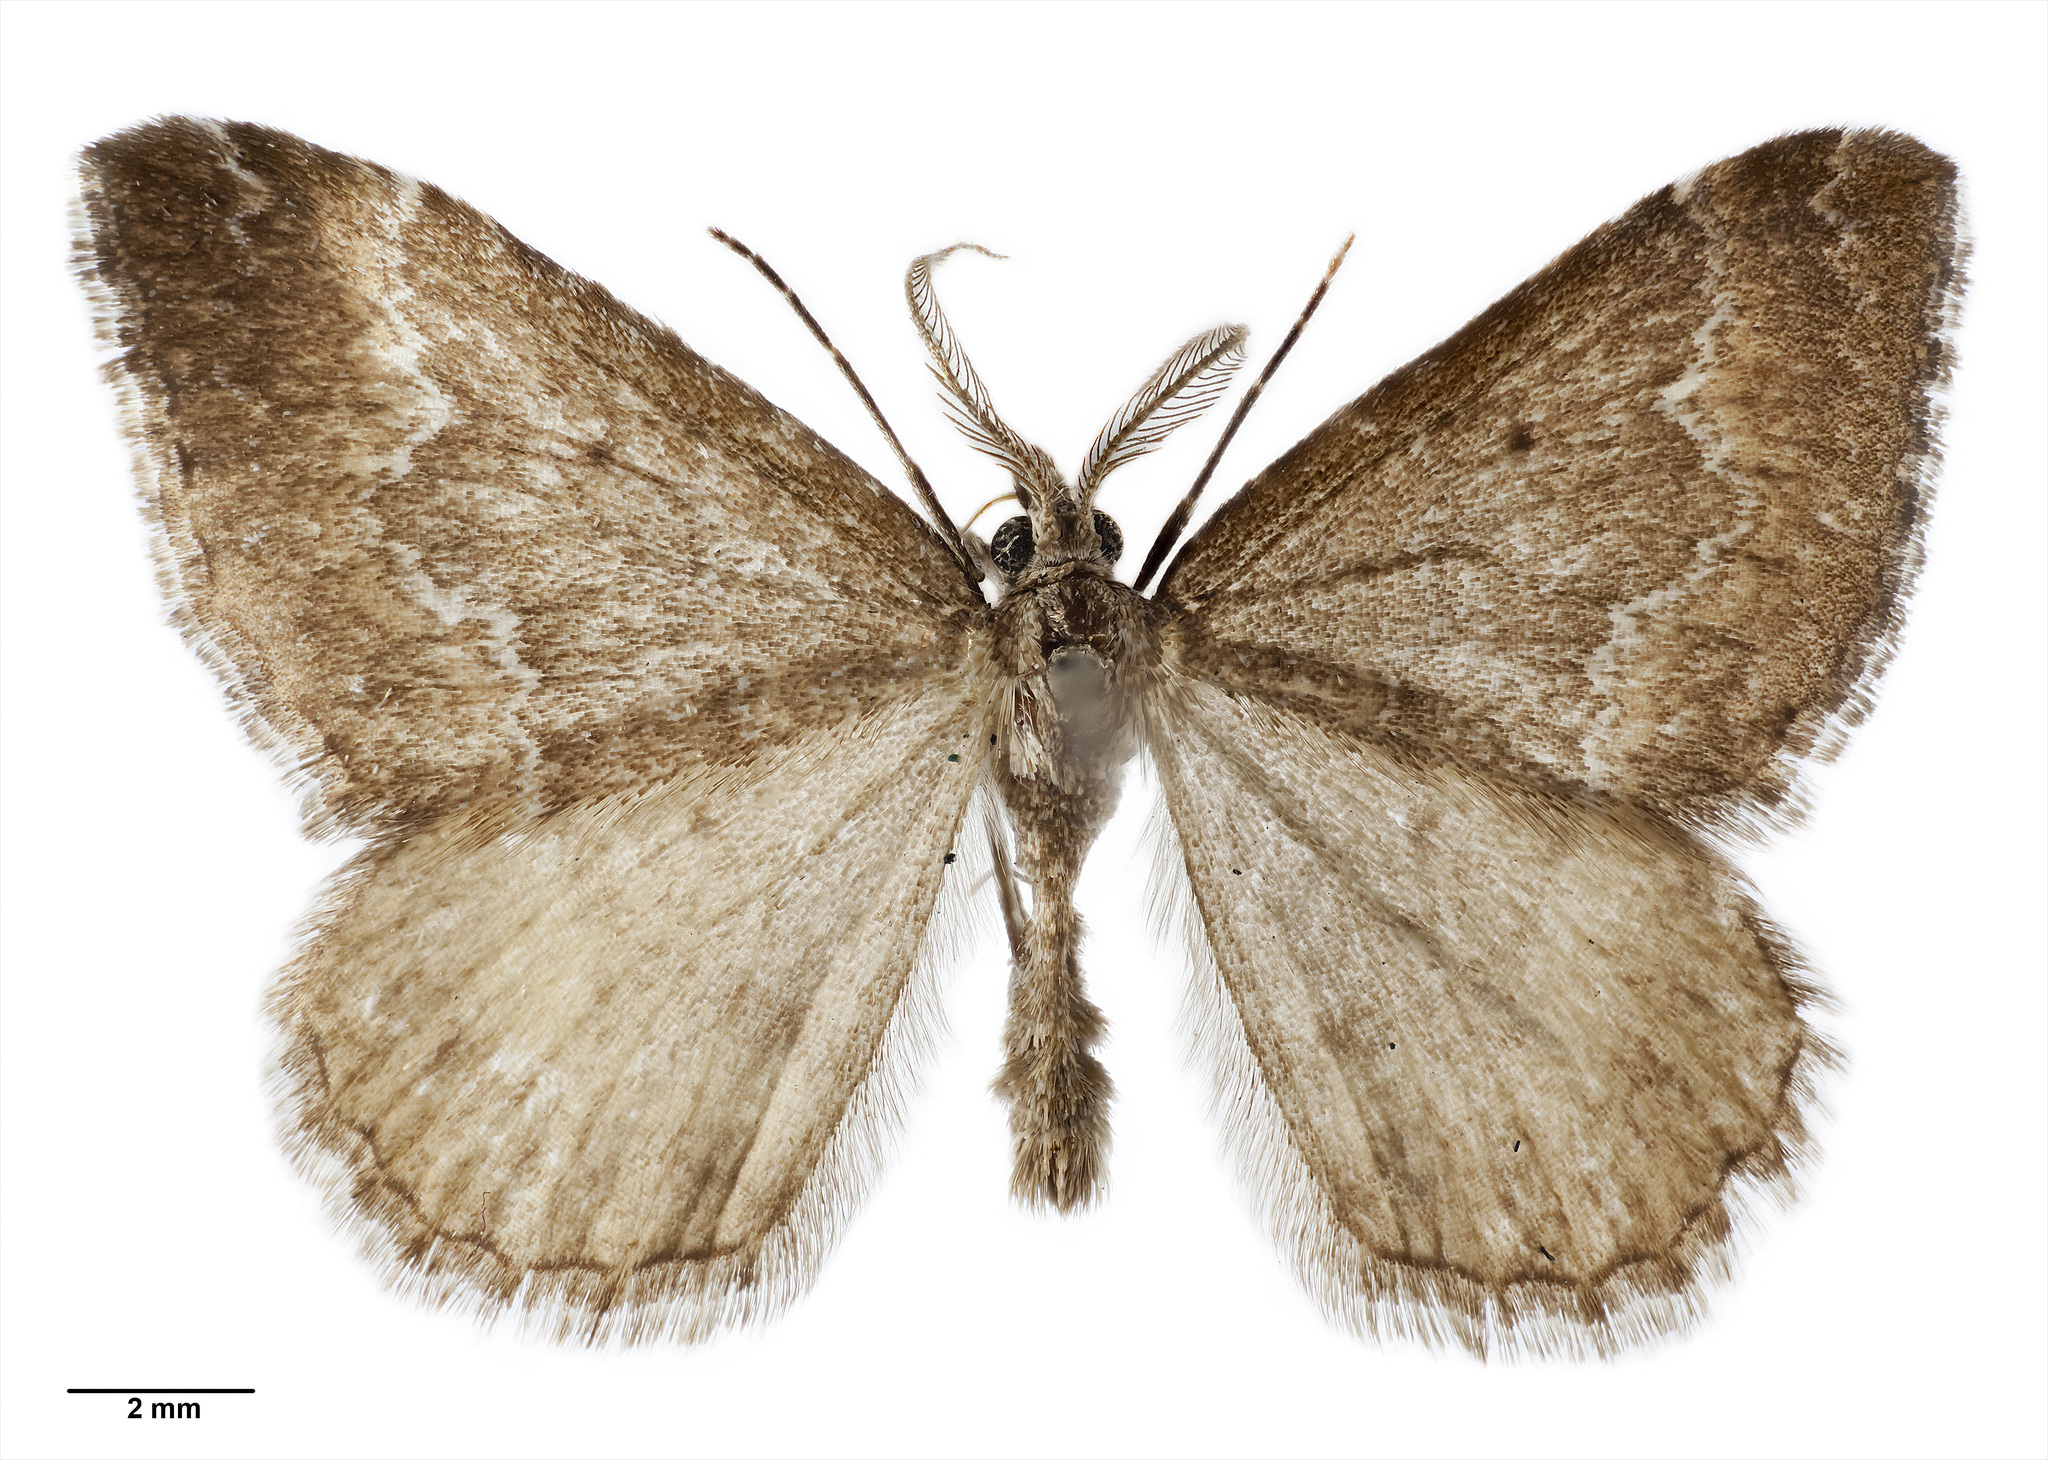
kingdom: Animalia
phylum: Arthropoda
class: Insecta
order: Lepidoptera
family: Geometridae
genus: Asaphodes
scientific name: Asaphodes ida
